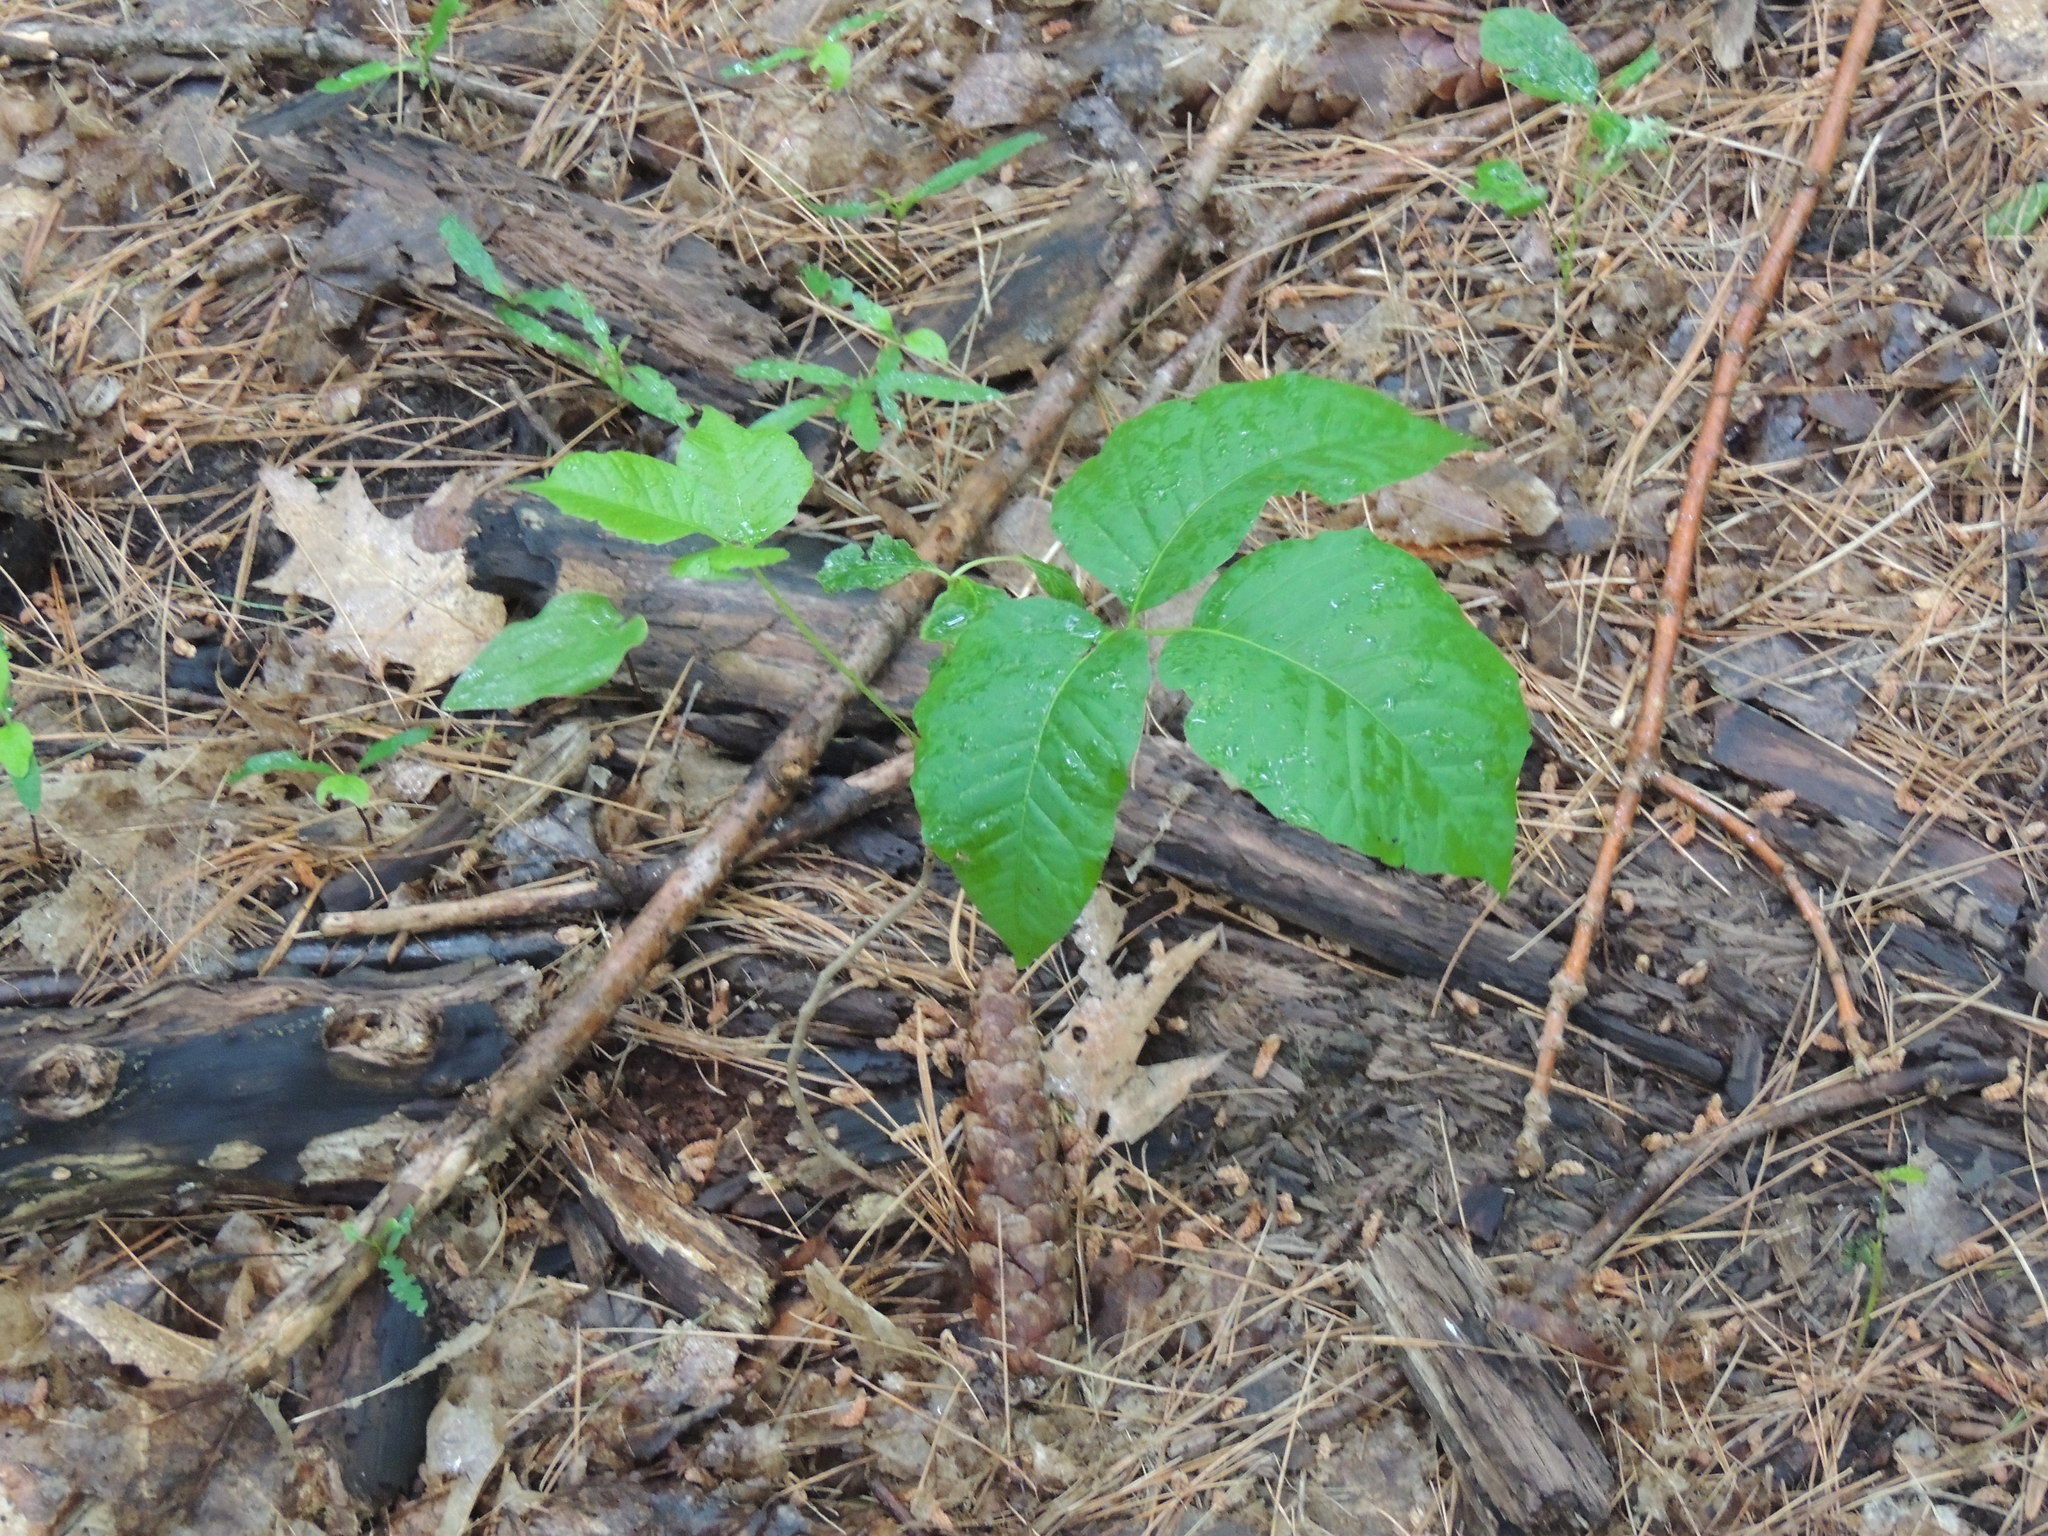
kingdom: Plantae
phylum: Tracheophyta
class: Magnoliopsida
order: Sapindales
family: Anacardiaceae
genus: Toxicodendron
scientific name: Toxicodendron radicans
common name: Poison ivy
